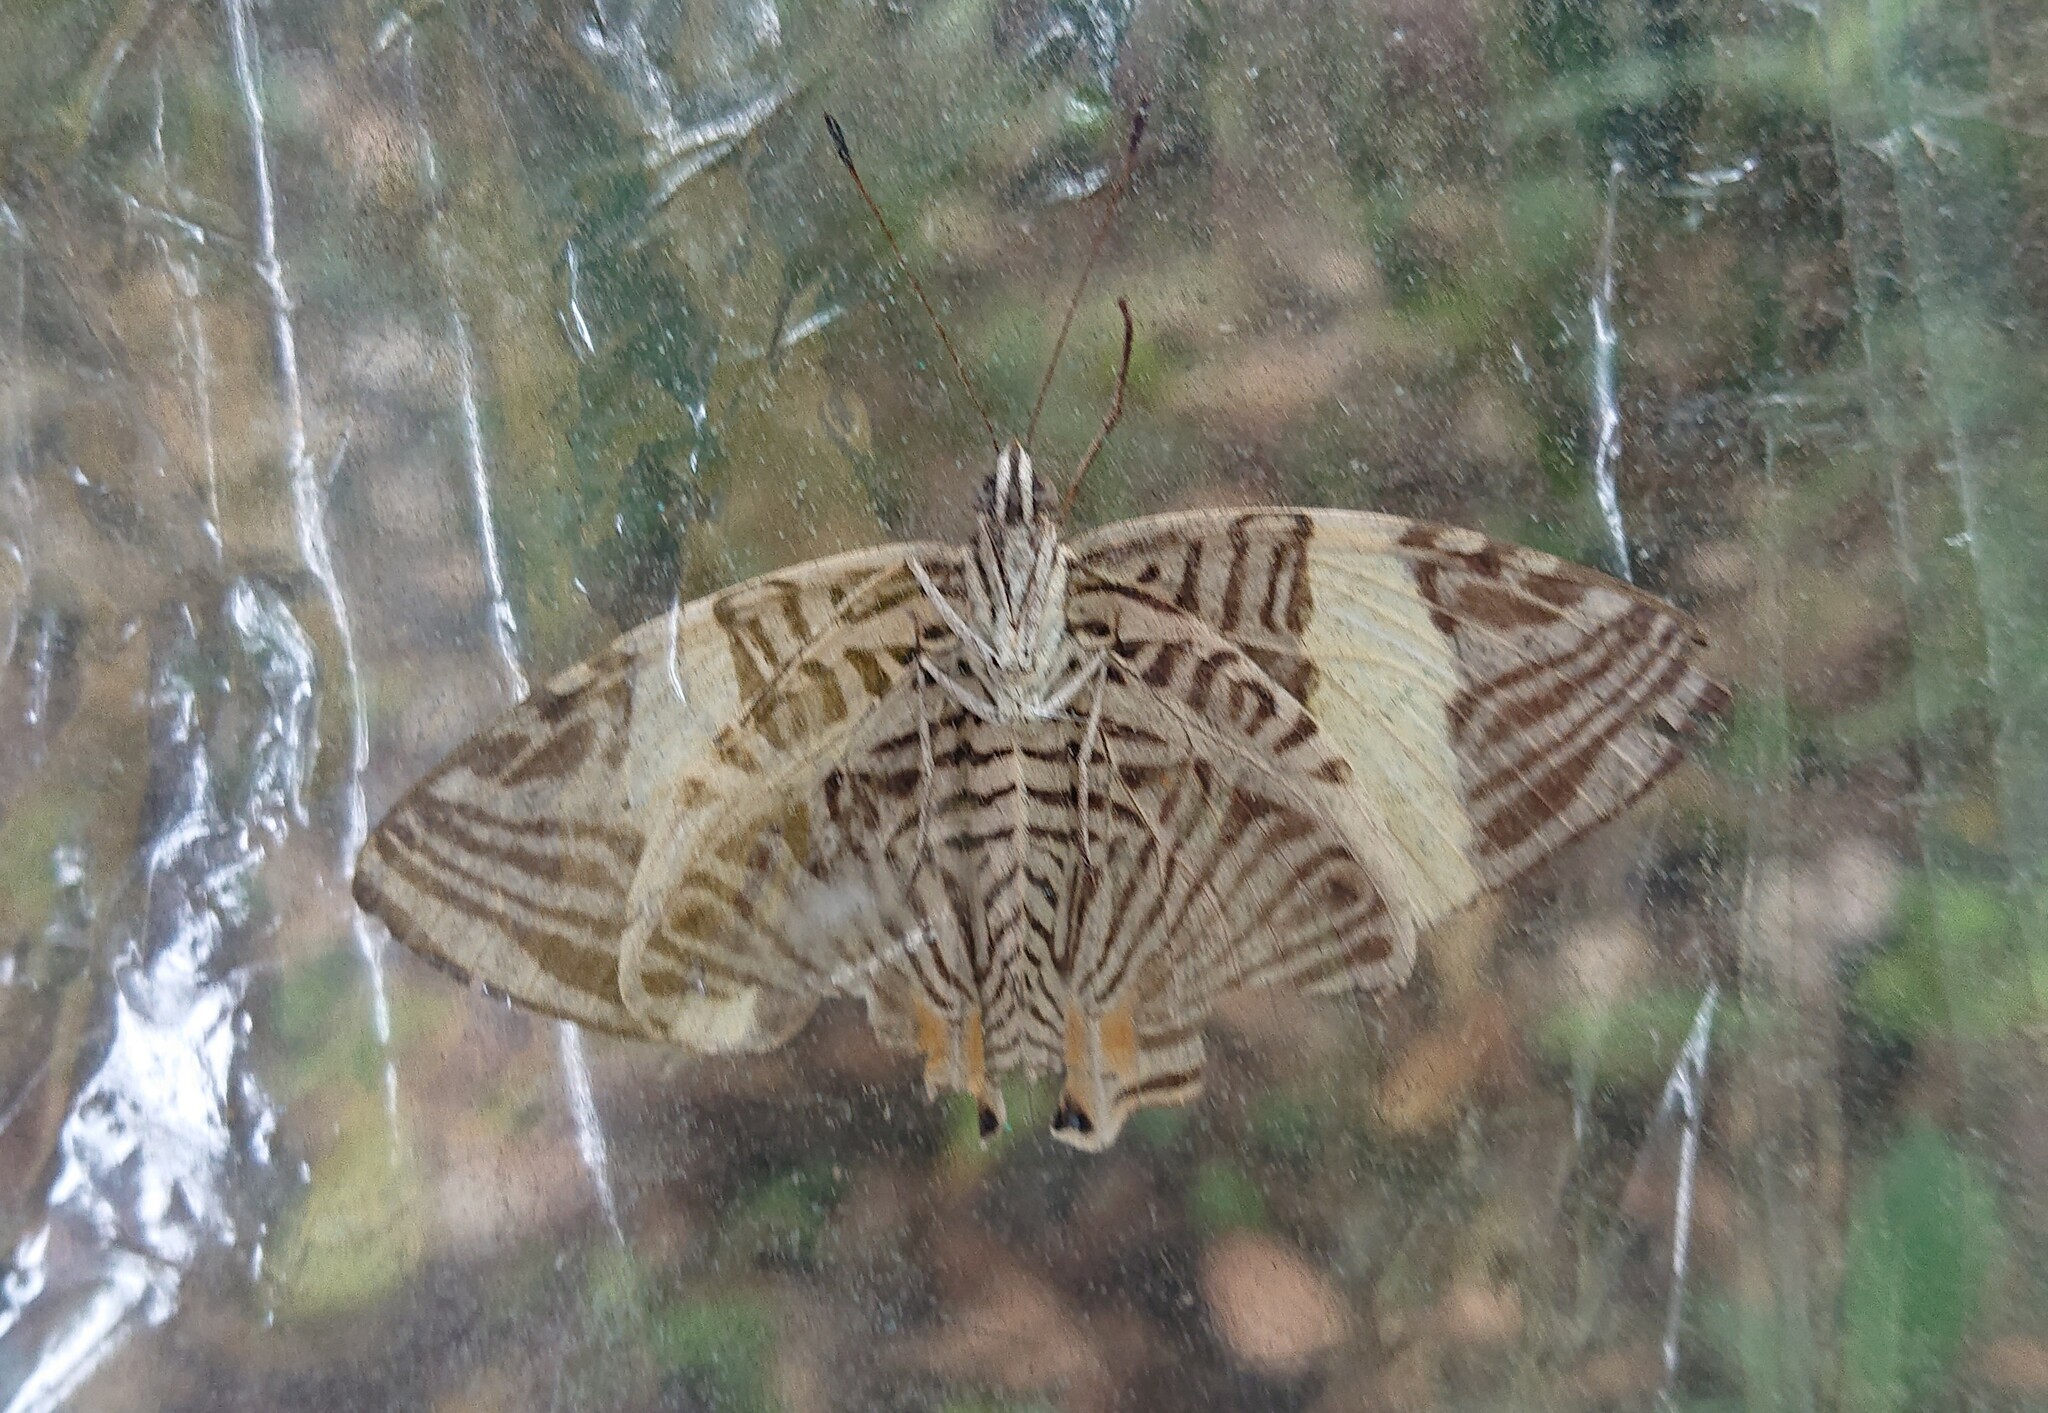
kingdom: Animalia
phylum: Arthropoda
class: Insecta
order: Lepidoptera
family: Nymphalidae
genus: Colobura
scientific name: Colobura dirce
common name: Dirce beauty
